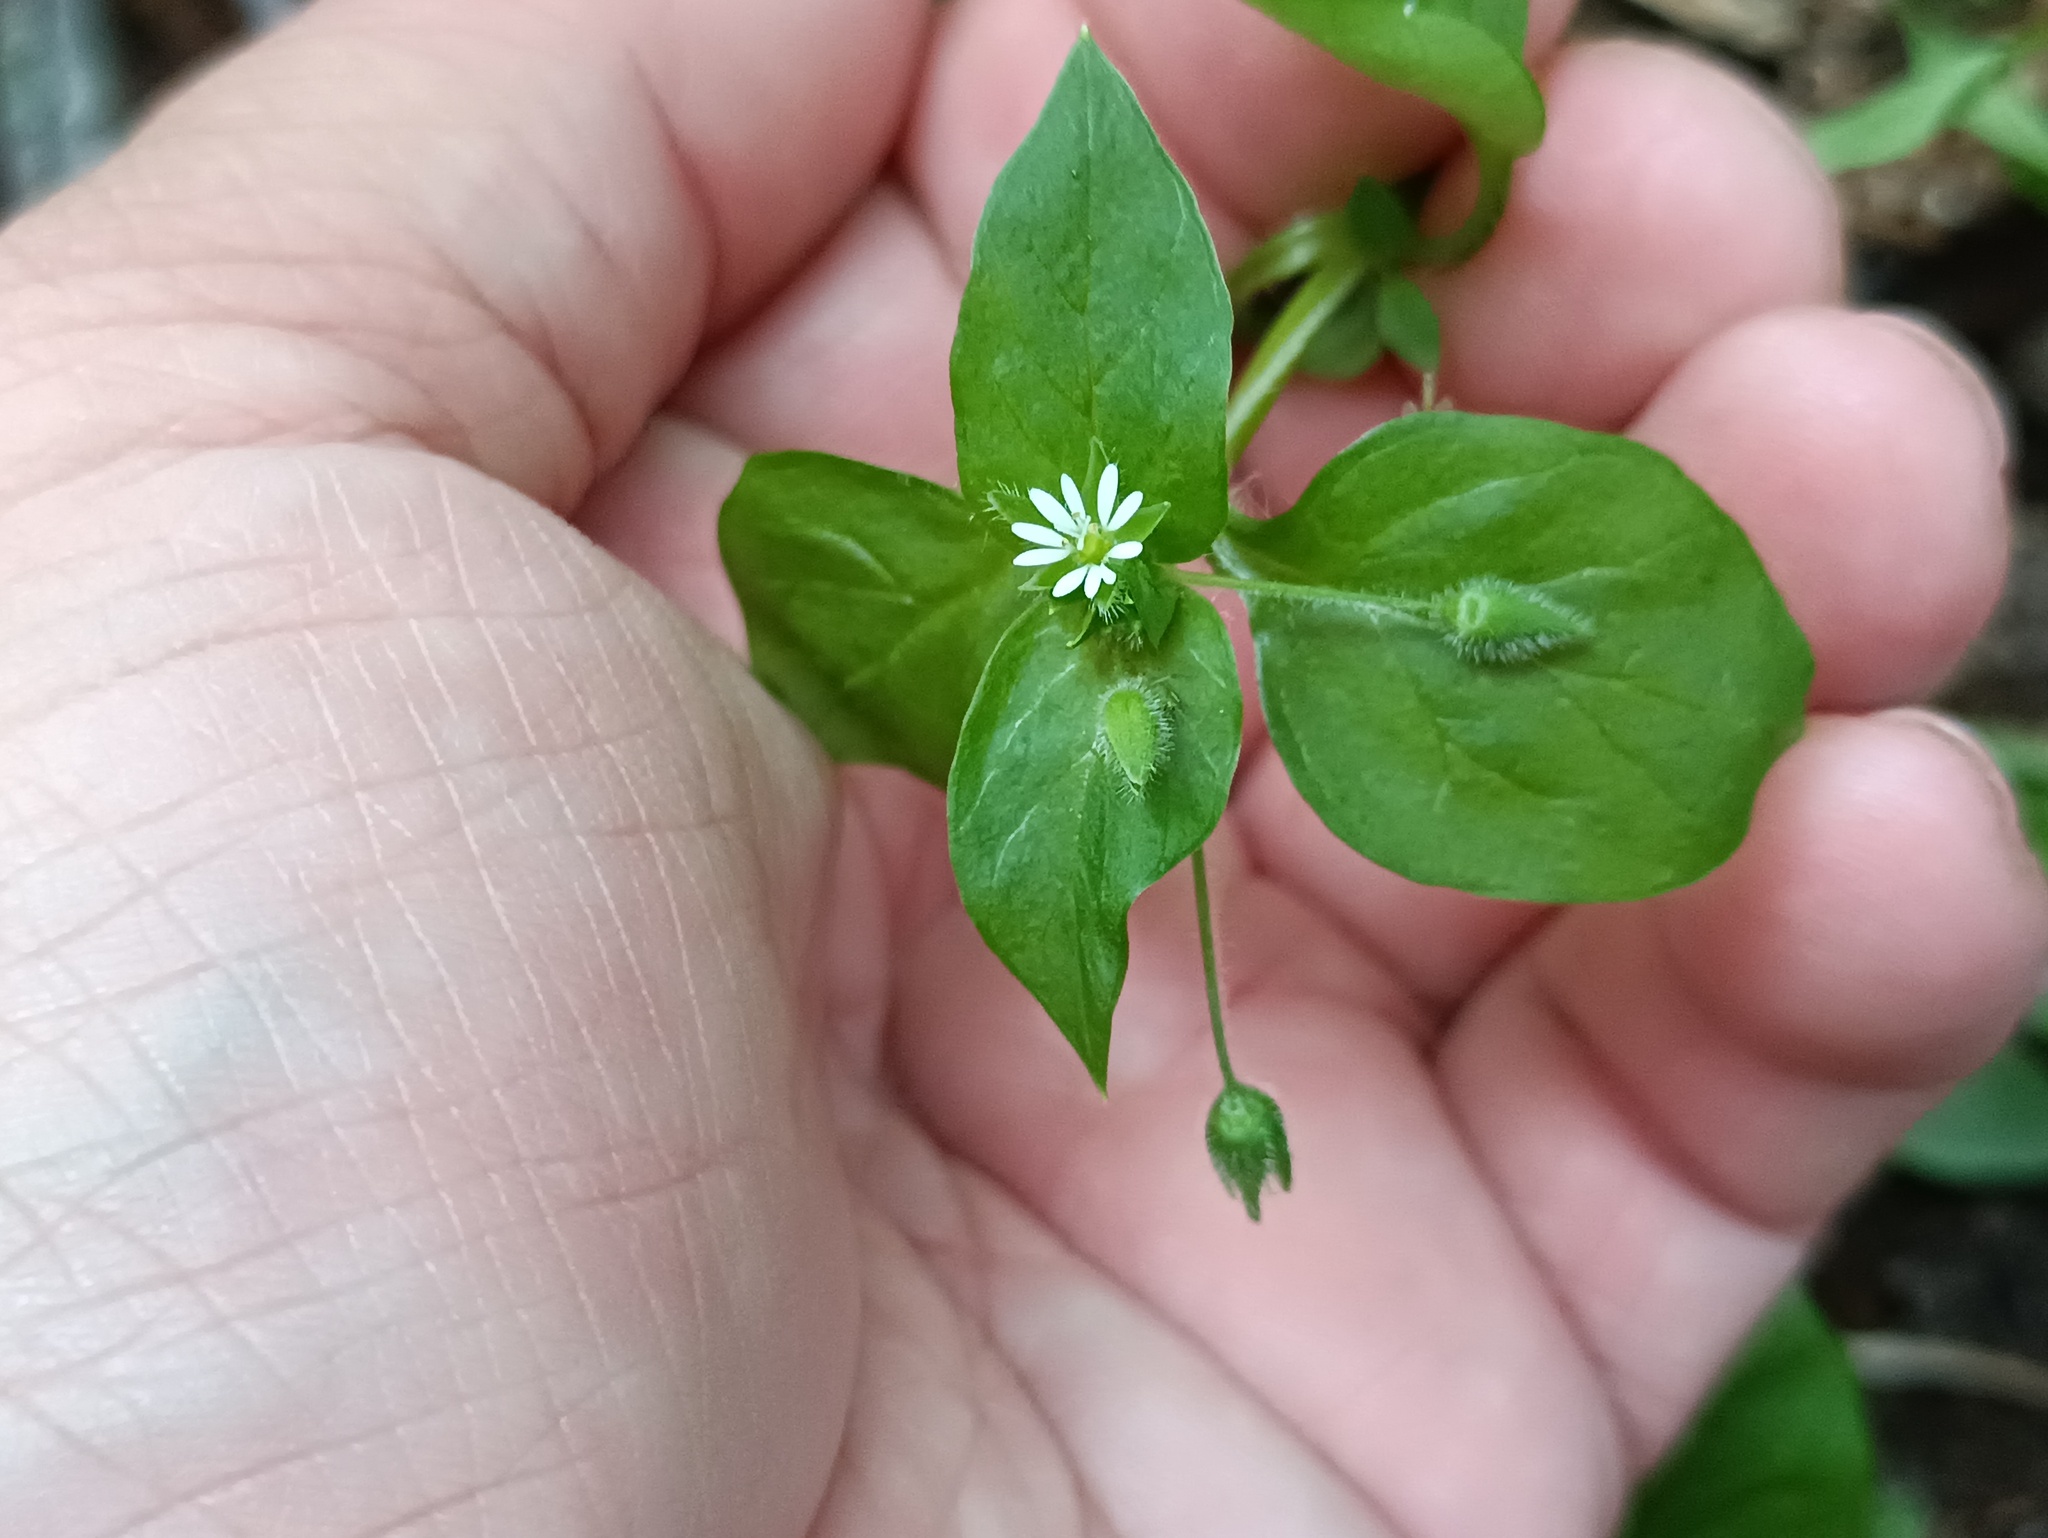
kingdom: Plantae
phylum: Tracheophyta
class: Magnoliopsida
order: Caryophyllales
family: Caryophyllaceae
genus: Stellaria
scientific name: Stellaria media
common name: Common chickweed
